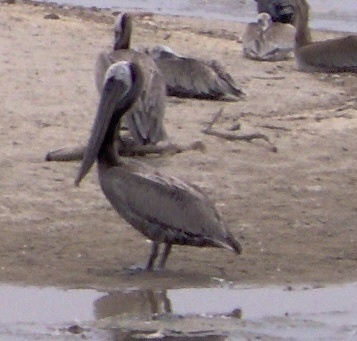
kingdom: Animalia
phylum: Chordata
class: Aves
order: Pelecaniformes
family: Pelecanidae
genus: Pelecanus
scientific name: Pelecanus occidentalis
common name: Brown pelican
